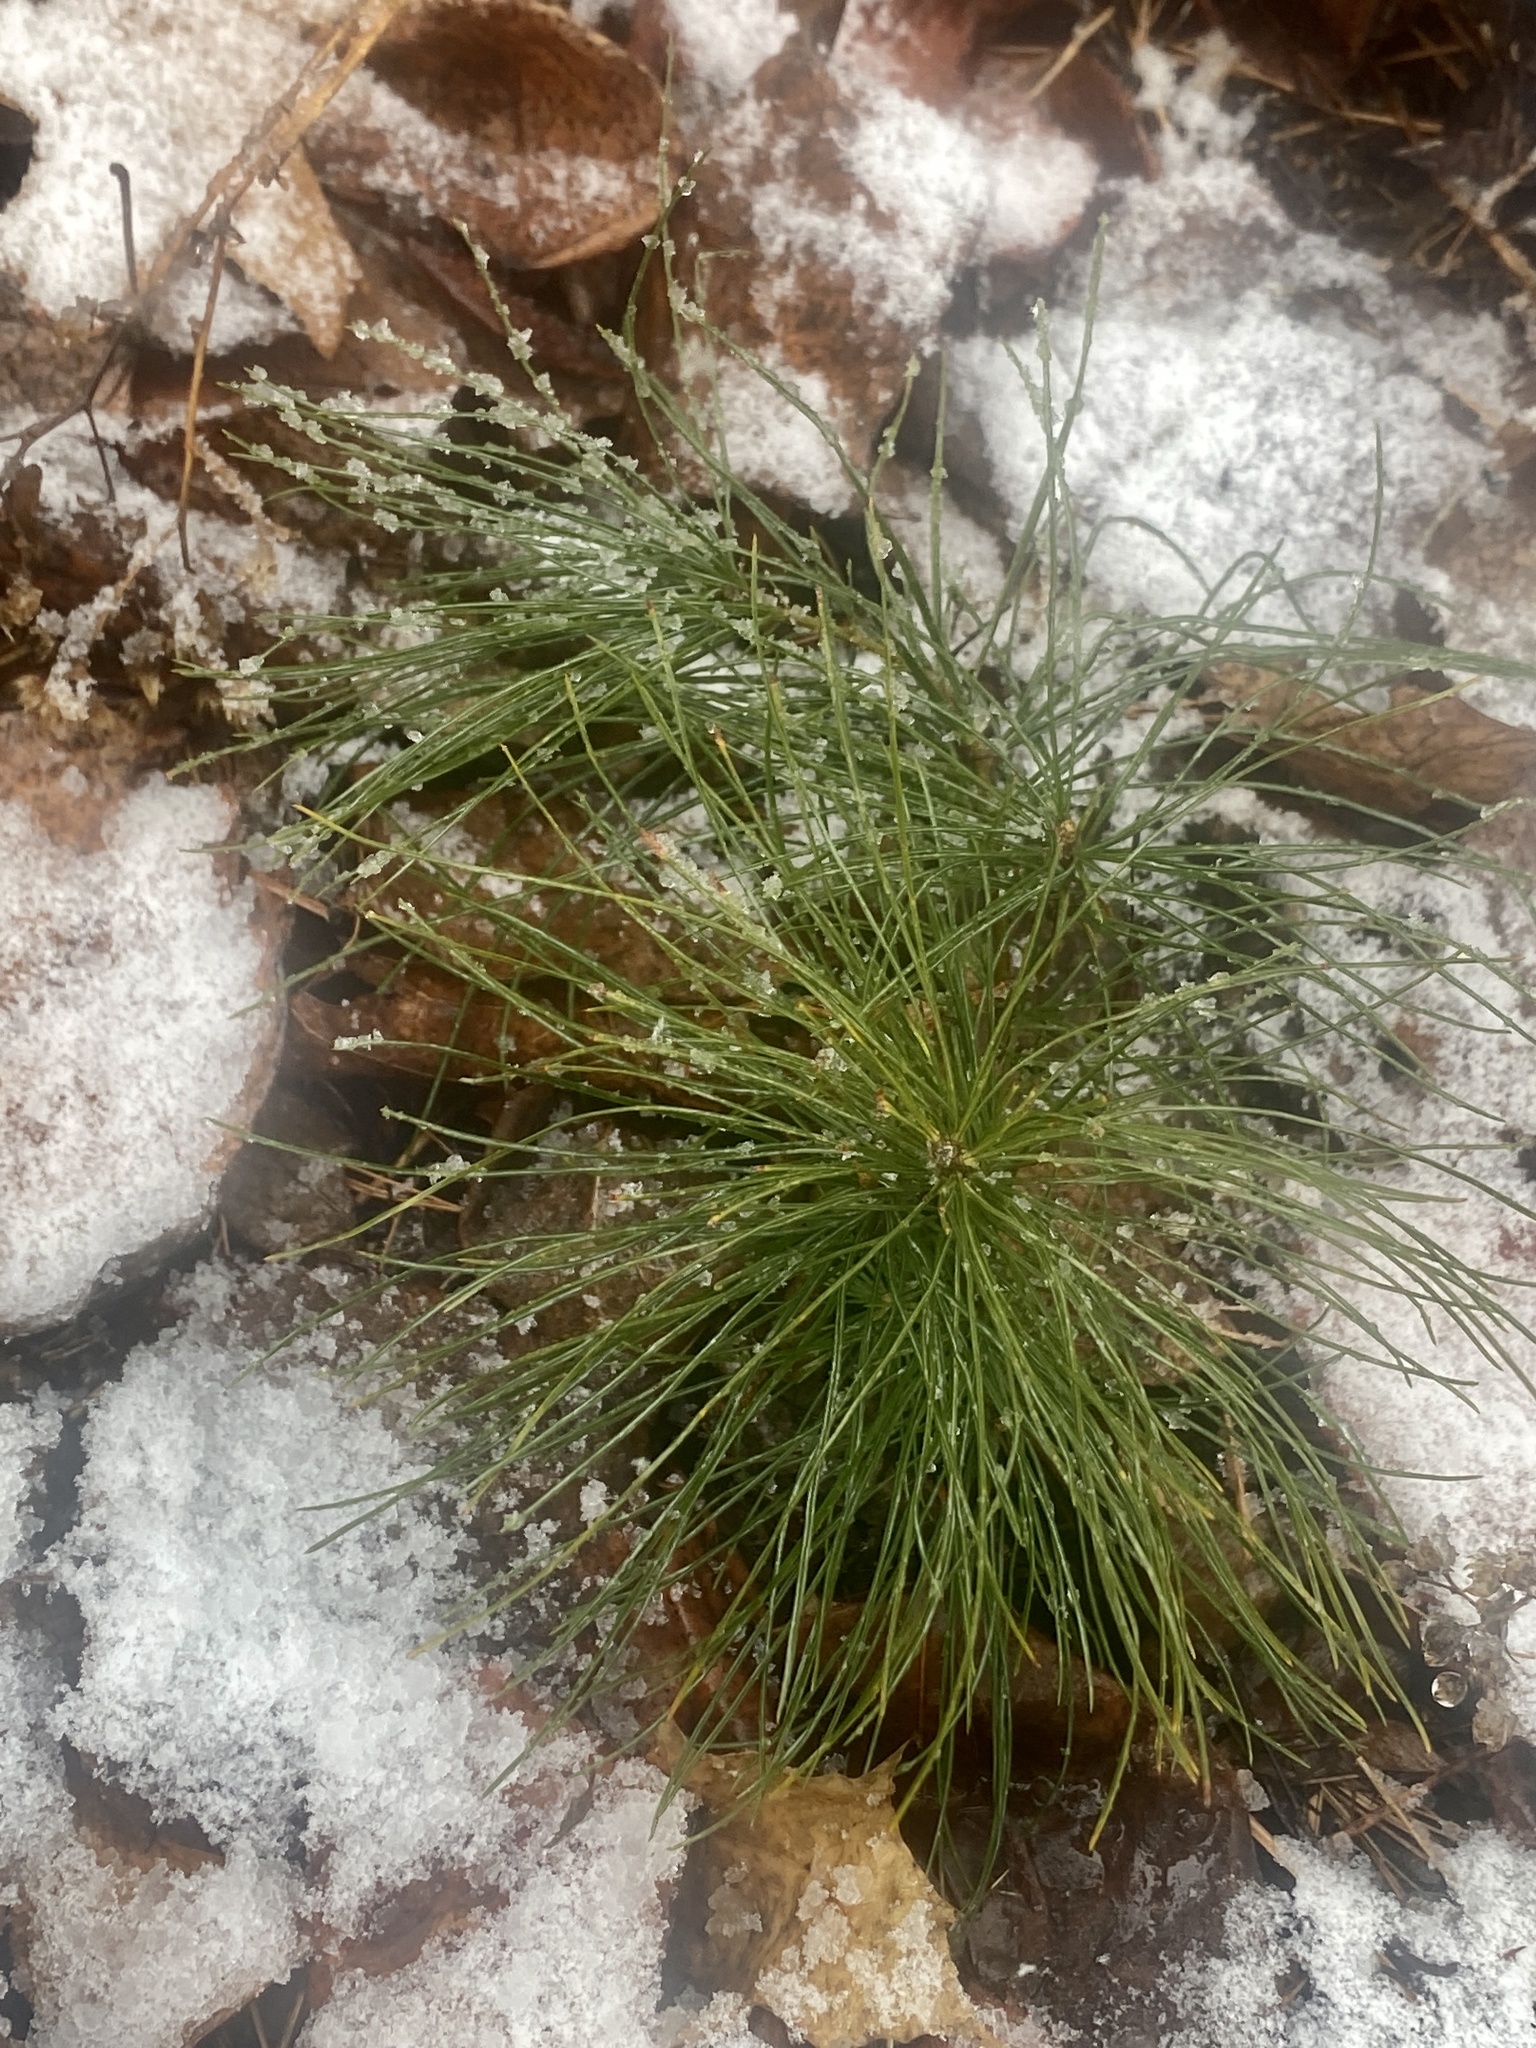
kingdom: Plantae
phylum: Tracheophyta
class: Pinopsida
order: Pinales
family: Pinaceae
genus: Pinus
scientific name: Pinus strobus
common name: Weymouth pine
